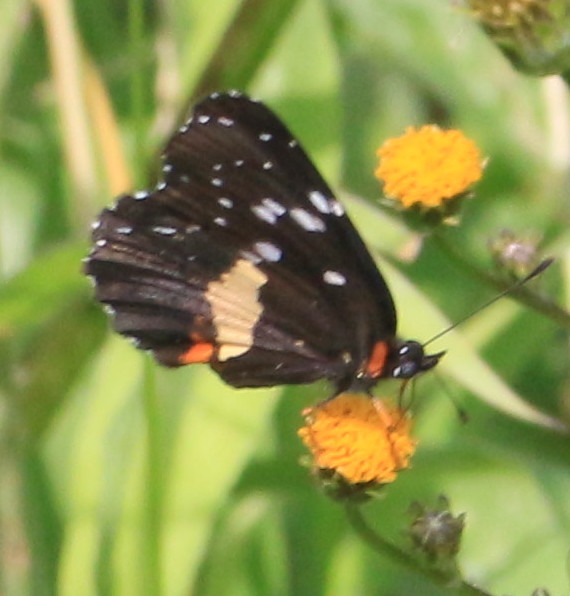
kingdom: Animalia
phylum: Arthropoda
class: Insecta
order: Lepidoptera
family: Nymphalidae
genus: Chlosyne
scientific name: Chlosyne lacinia
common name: Bordered patch
